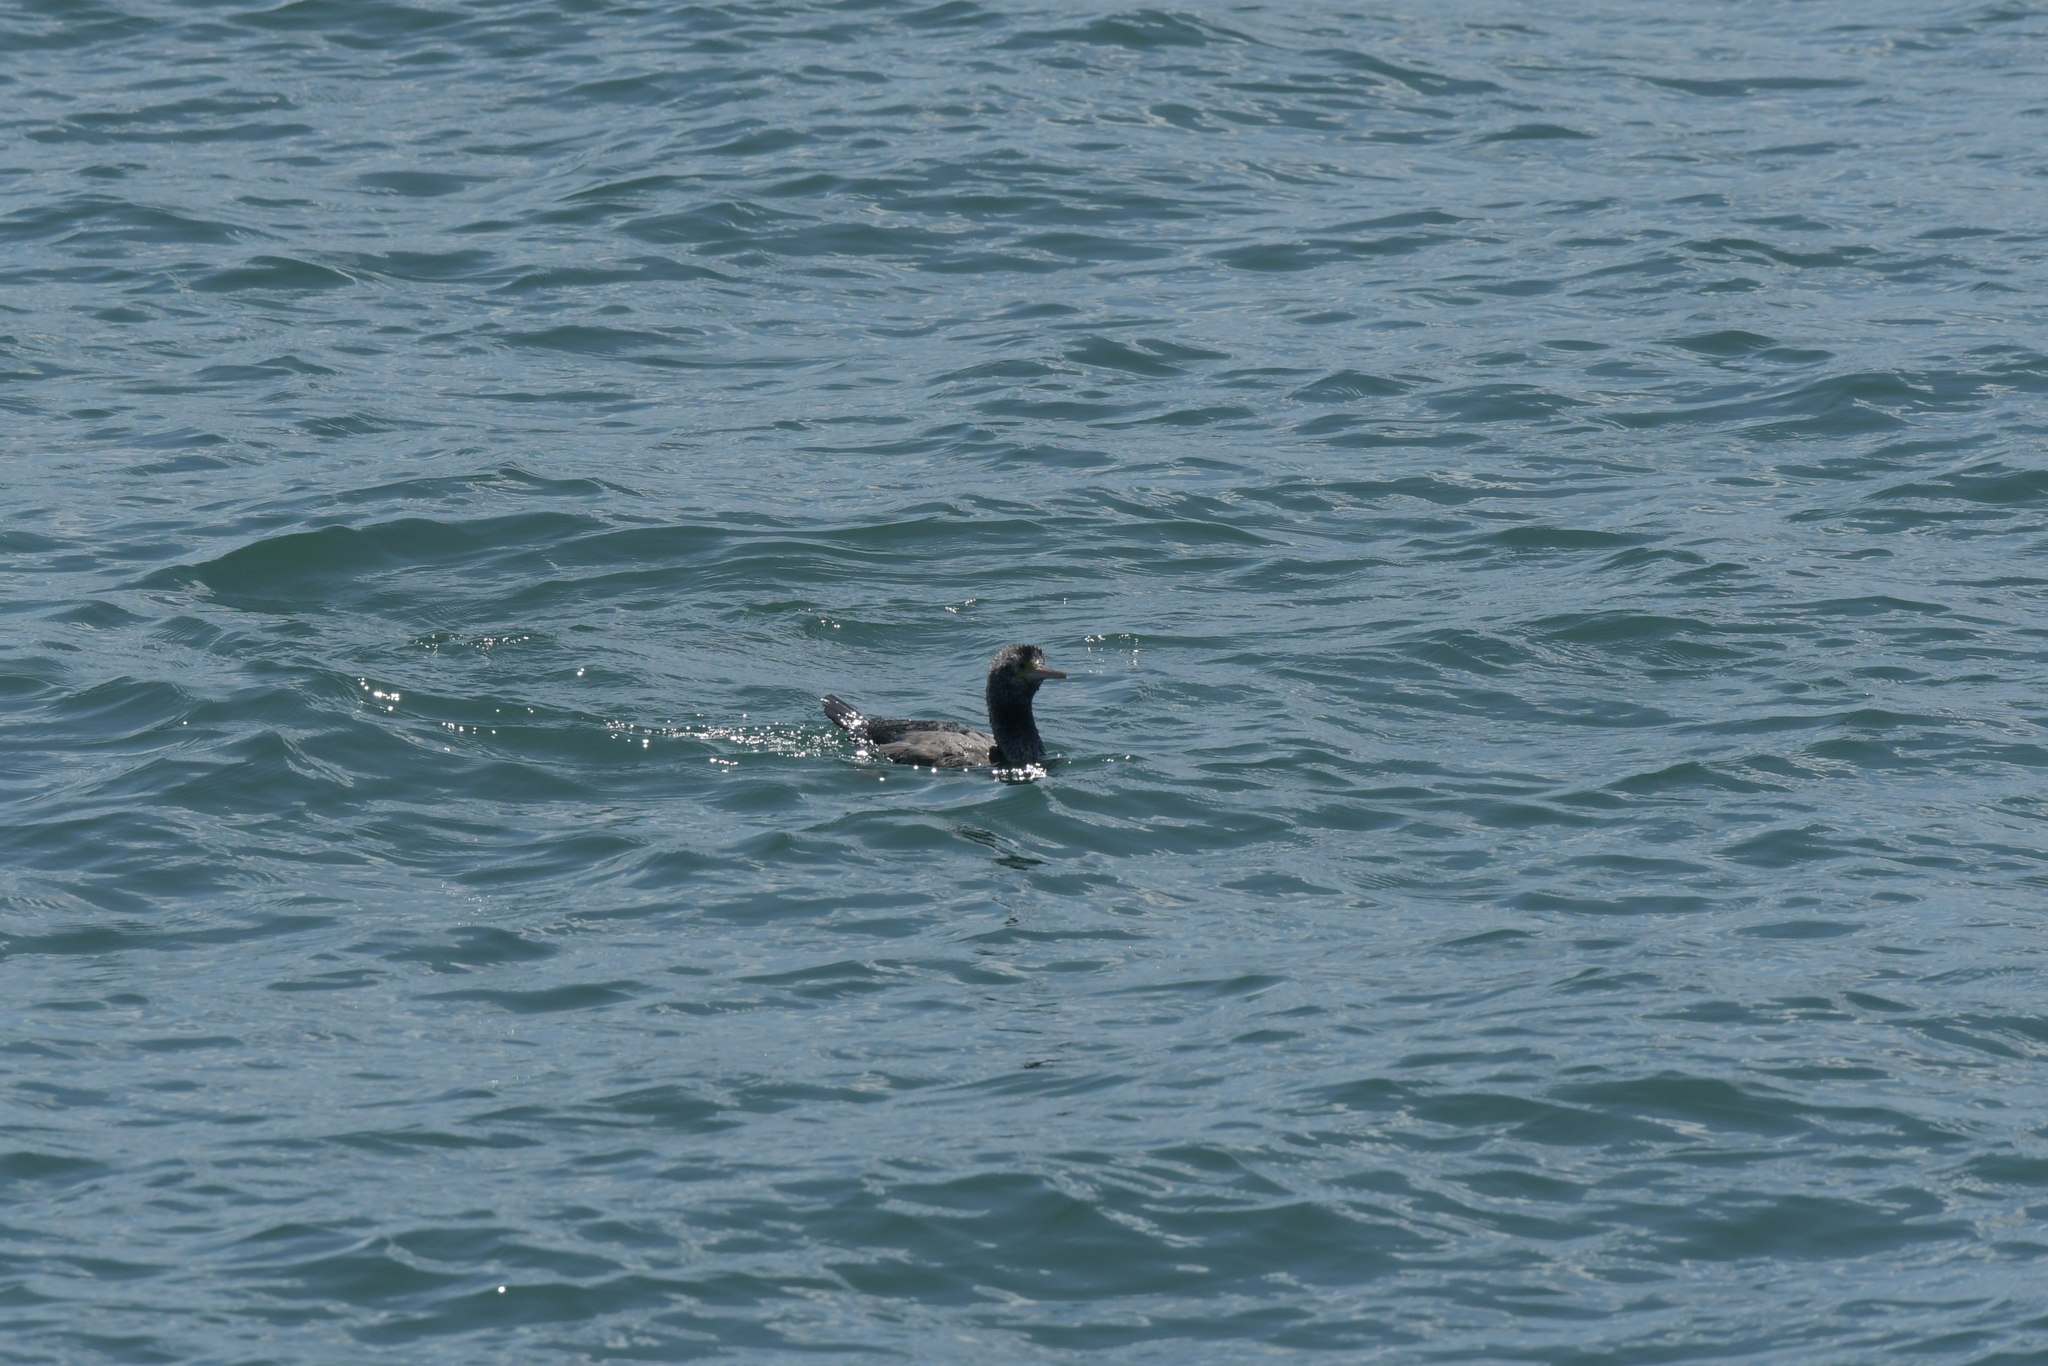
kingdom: Animalia
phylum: Chordata
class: Aves
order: Suliformes
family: Phalacrocoracidae
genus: Phalacrocorax
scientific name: Phalacrocorax carbo
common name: Great cormorant
